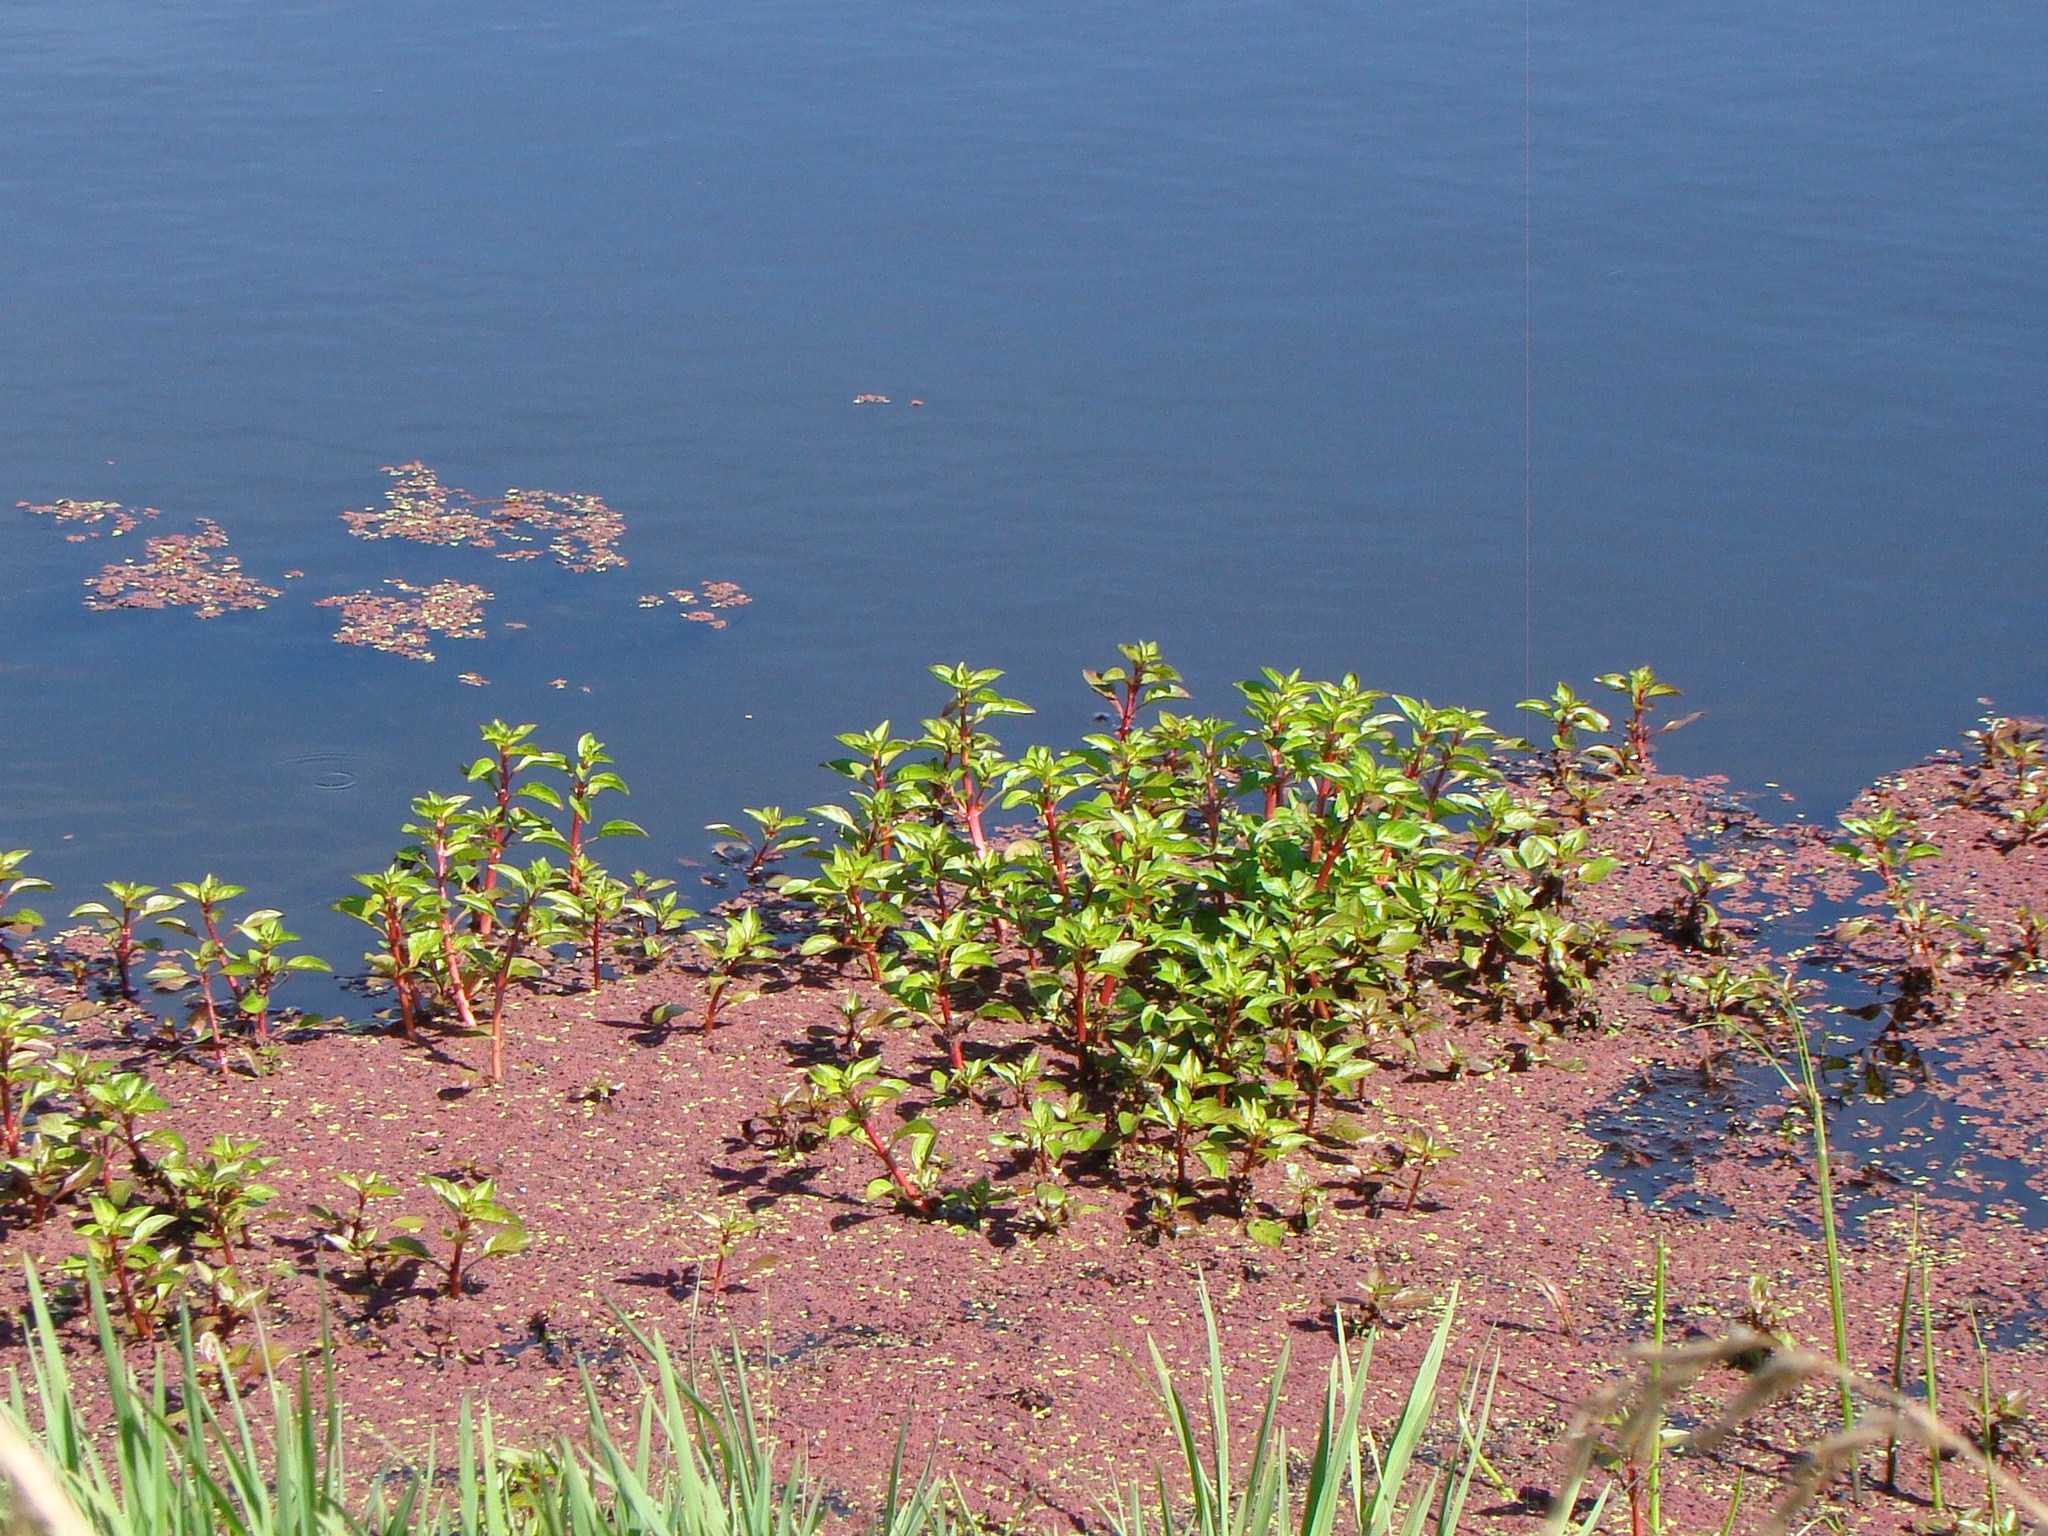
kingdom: Plantae
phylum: Tracheophyta
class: Magnoliopsida
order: Myrtales
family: Onagraceae
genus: Ludwigia
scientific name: Ludwigia palustris
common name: Hampshire-purslane
